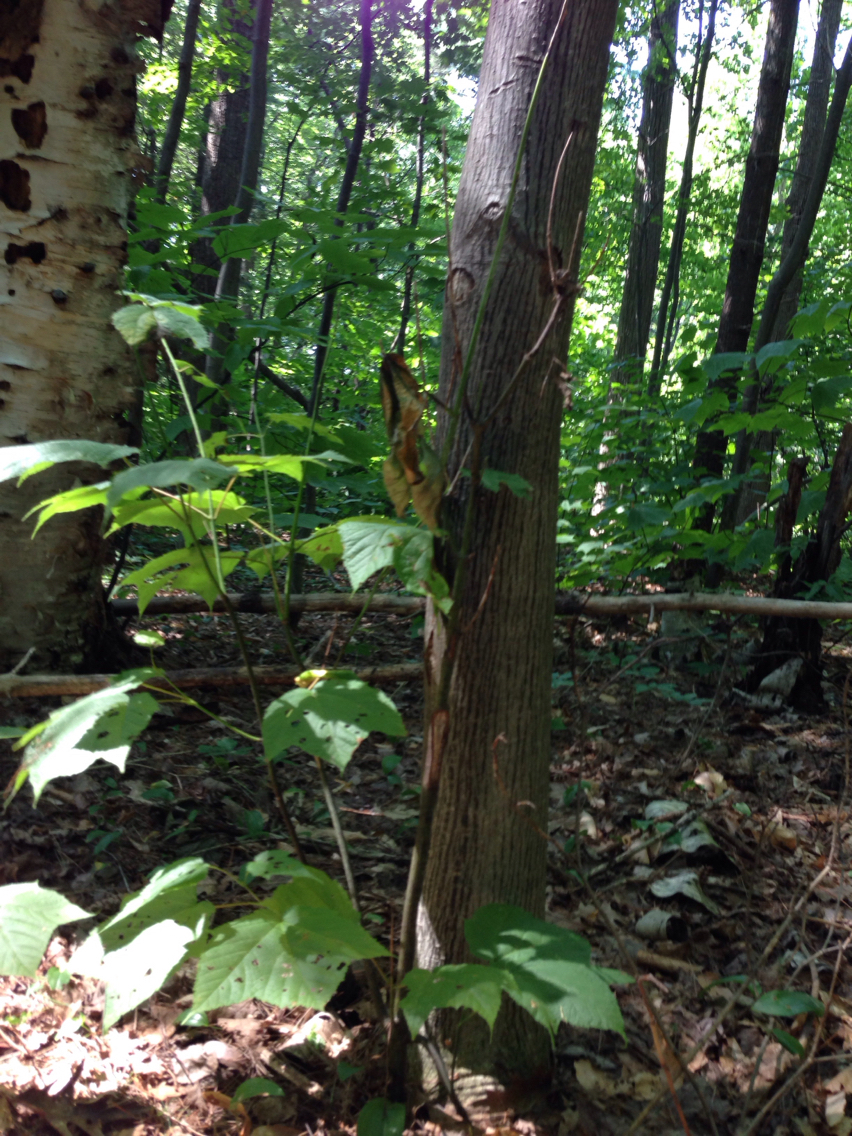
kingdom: Plantae
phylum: Tracheophyta
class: Magnoliopsida
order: Sapindales
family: Sapindaceae
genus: Acer
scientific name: Acer pensylvanicum
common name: Moosewood
